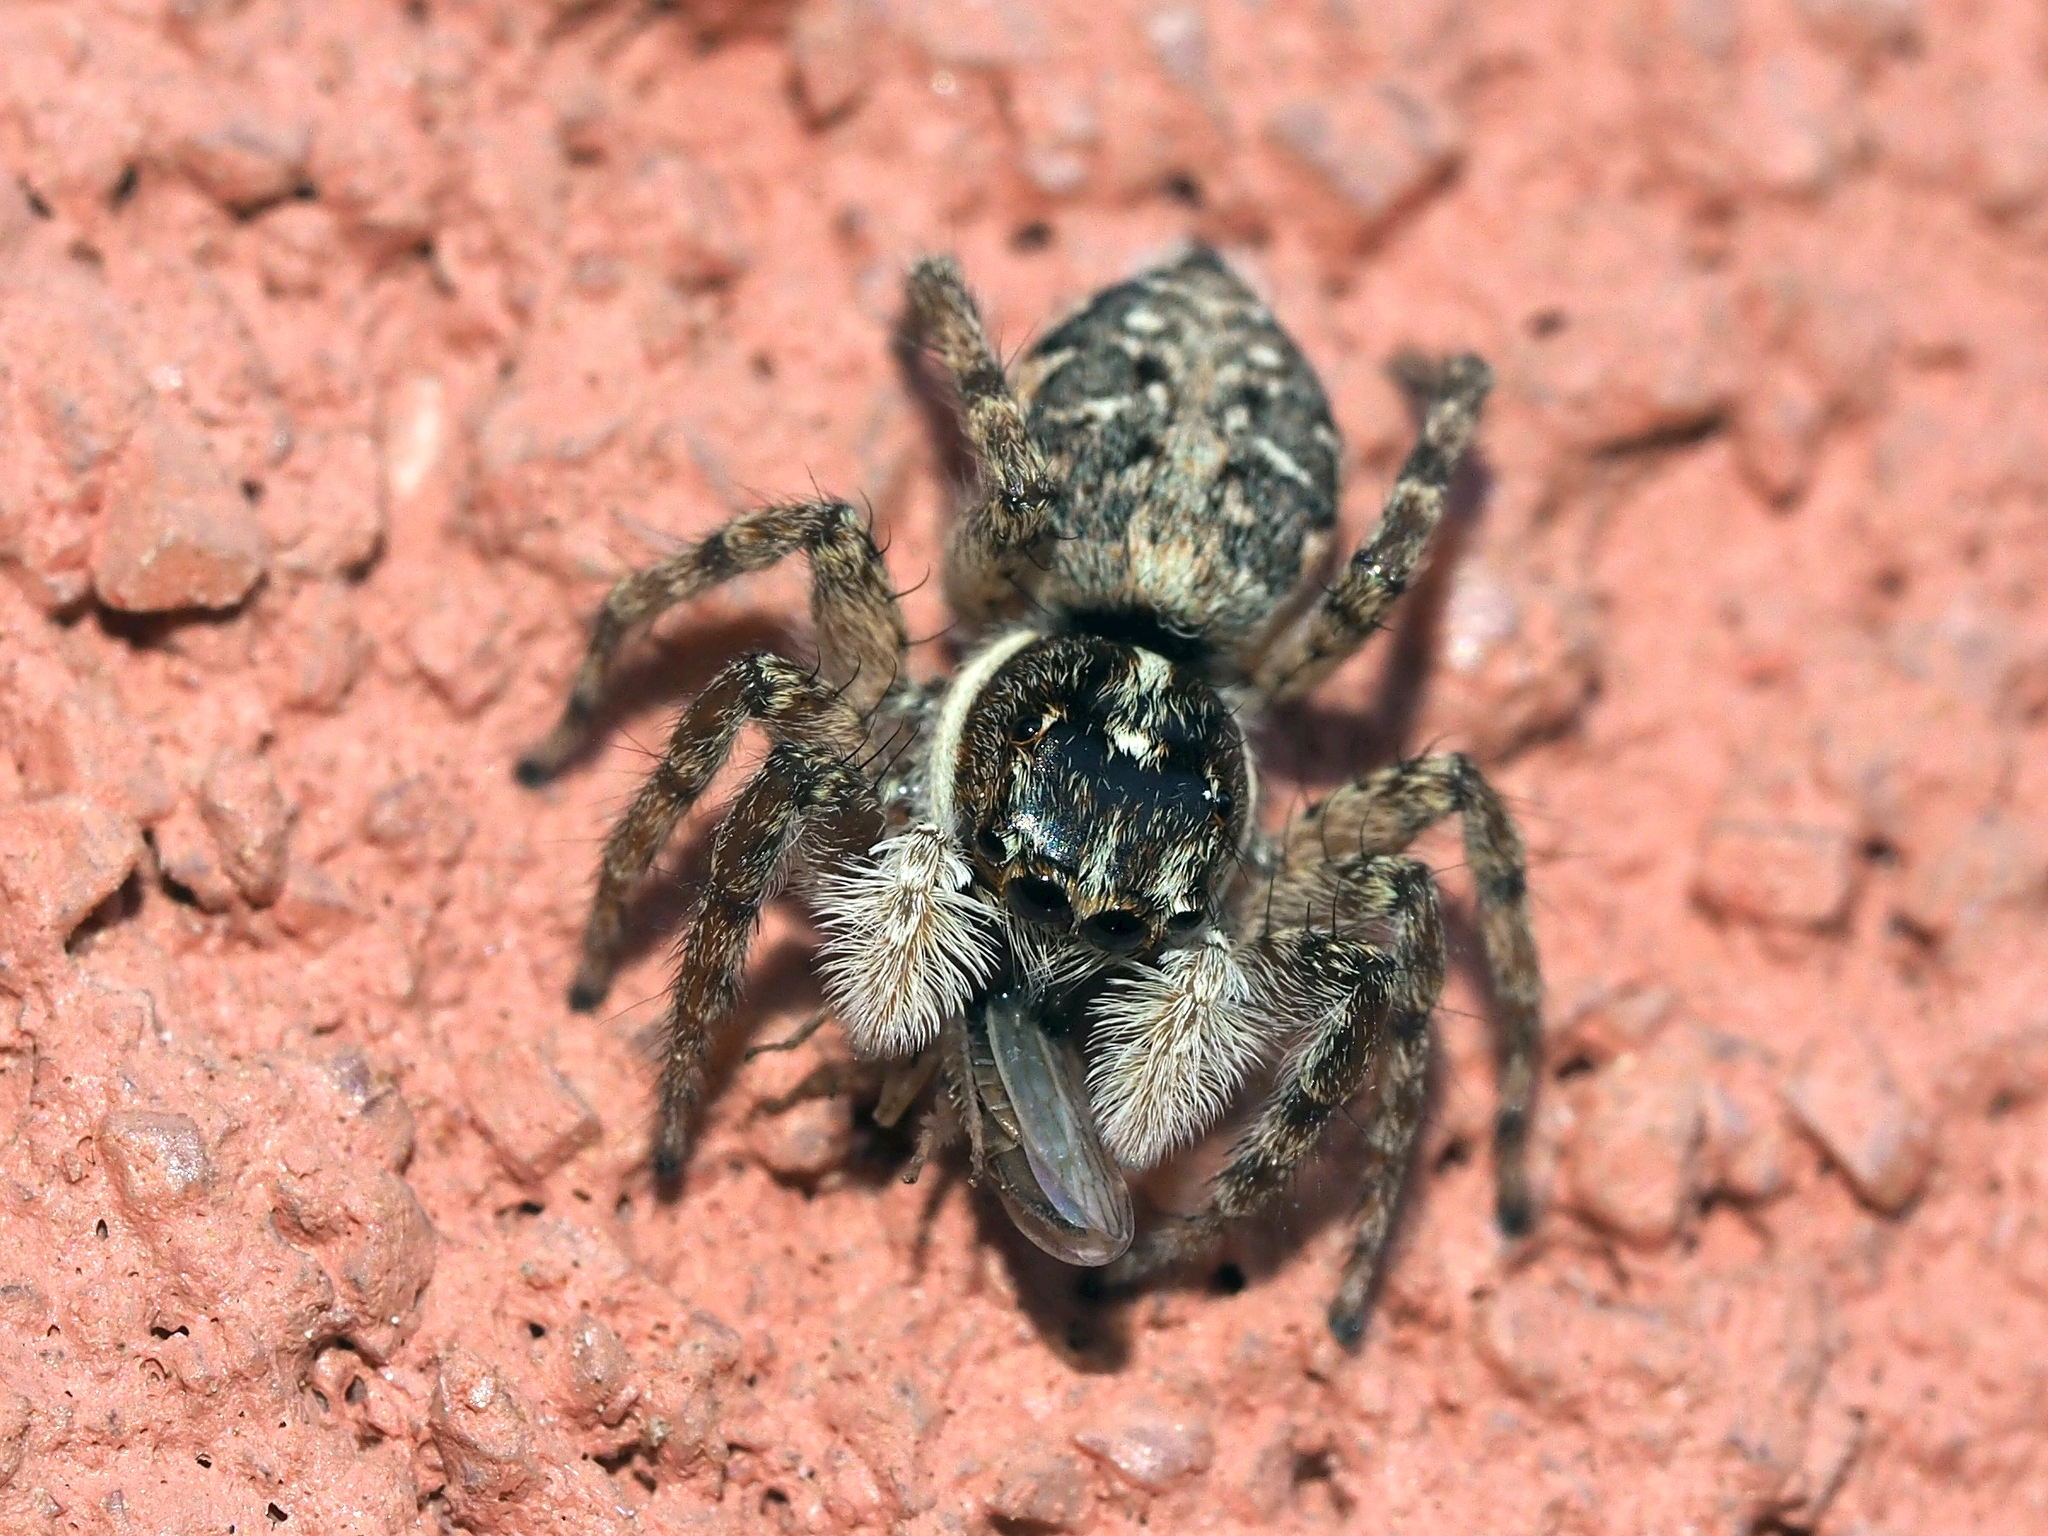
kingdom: Animalia
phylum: Arthropoda
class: Arachnida
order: Araneae
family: Salticidae
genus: Menemerus
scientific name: Menemerus semilimbatus
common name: Jumping spider
